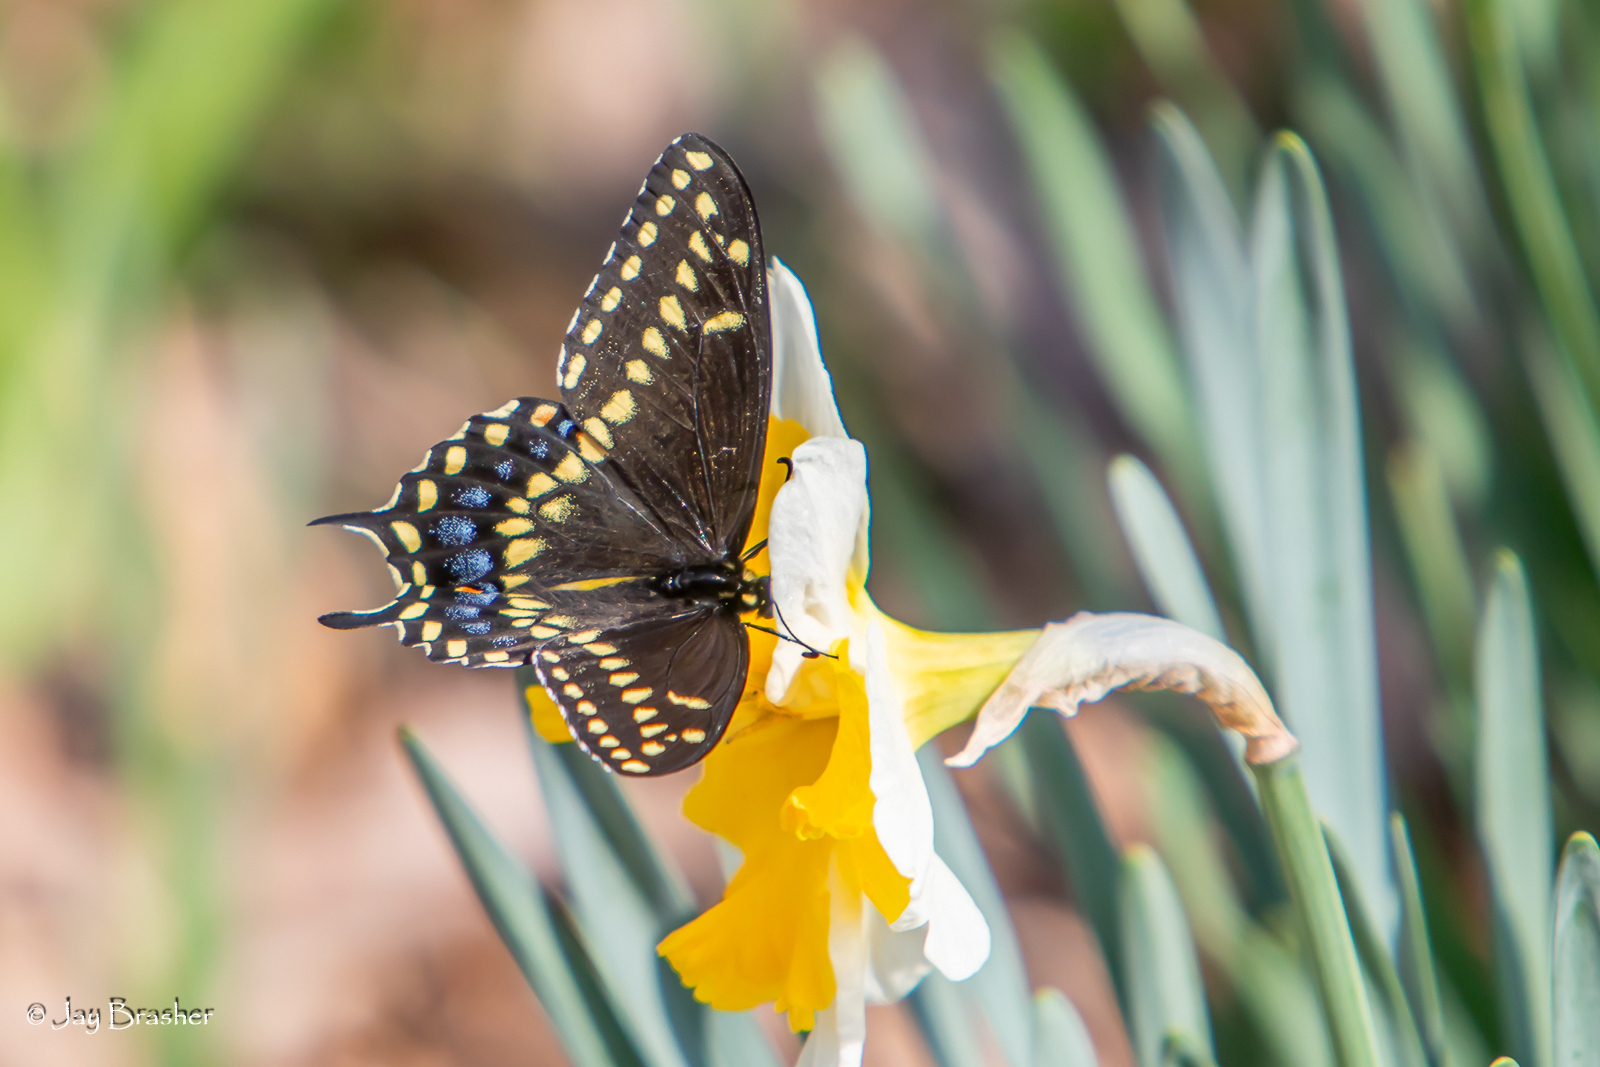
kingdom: Animalia
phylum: Arthropoda
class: Insecta
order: Lepidoptera
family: Papilionidae
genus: Papilio
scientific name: Papilio polyxenes
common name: Black swallowtail
